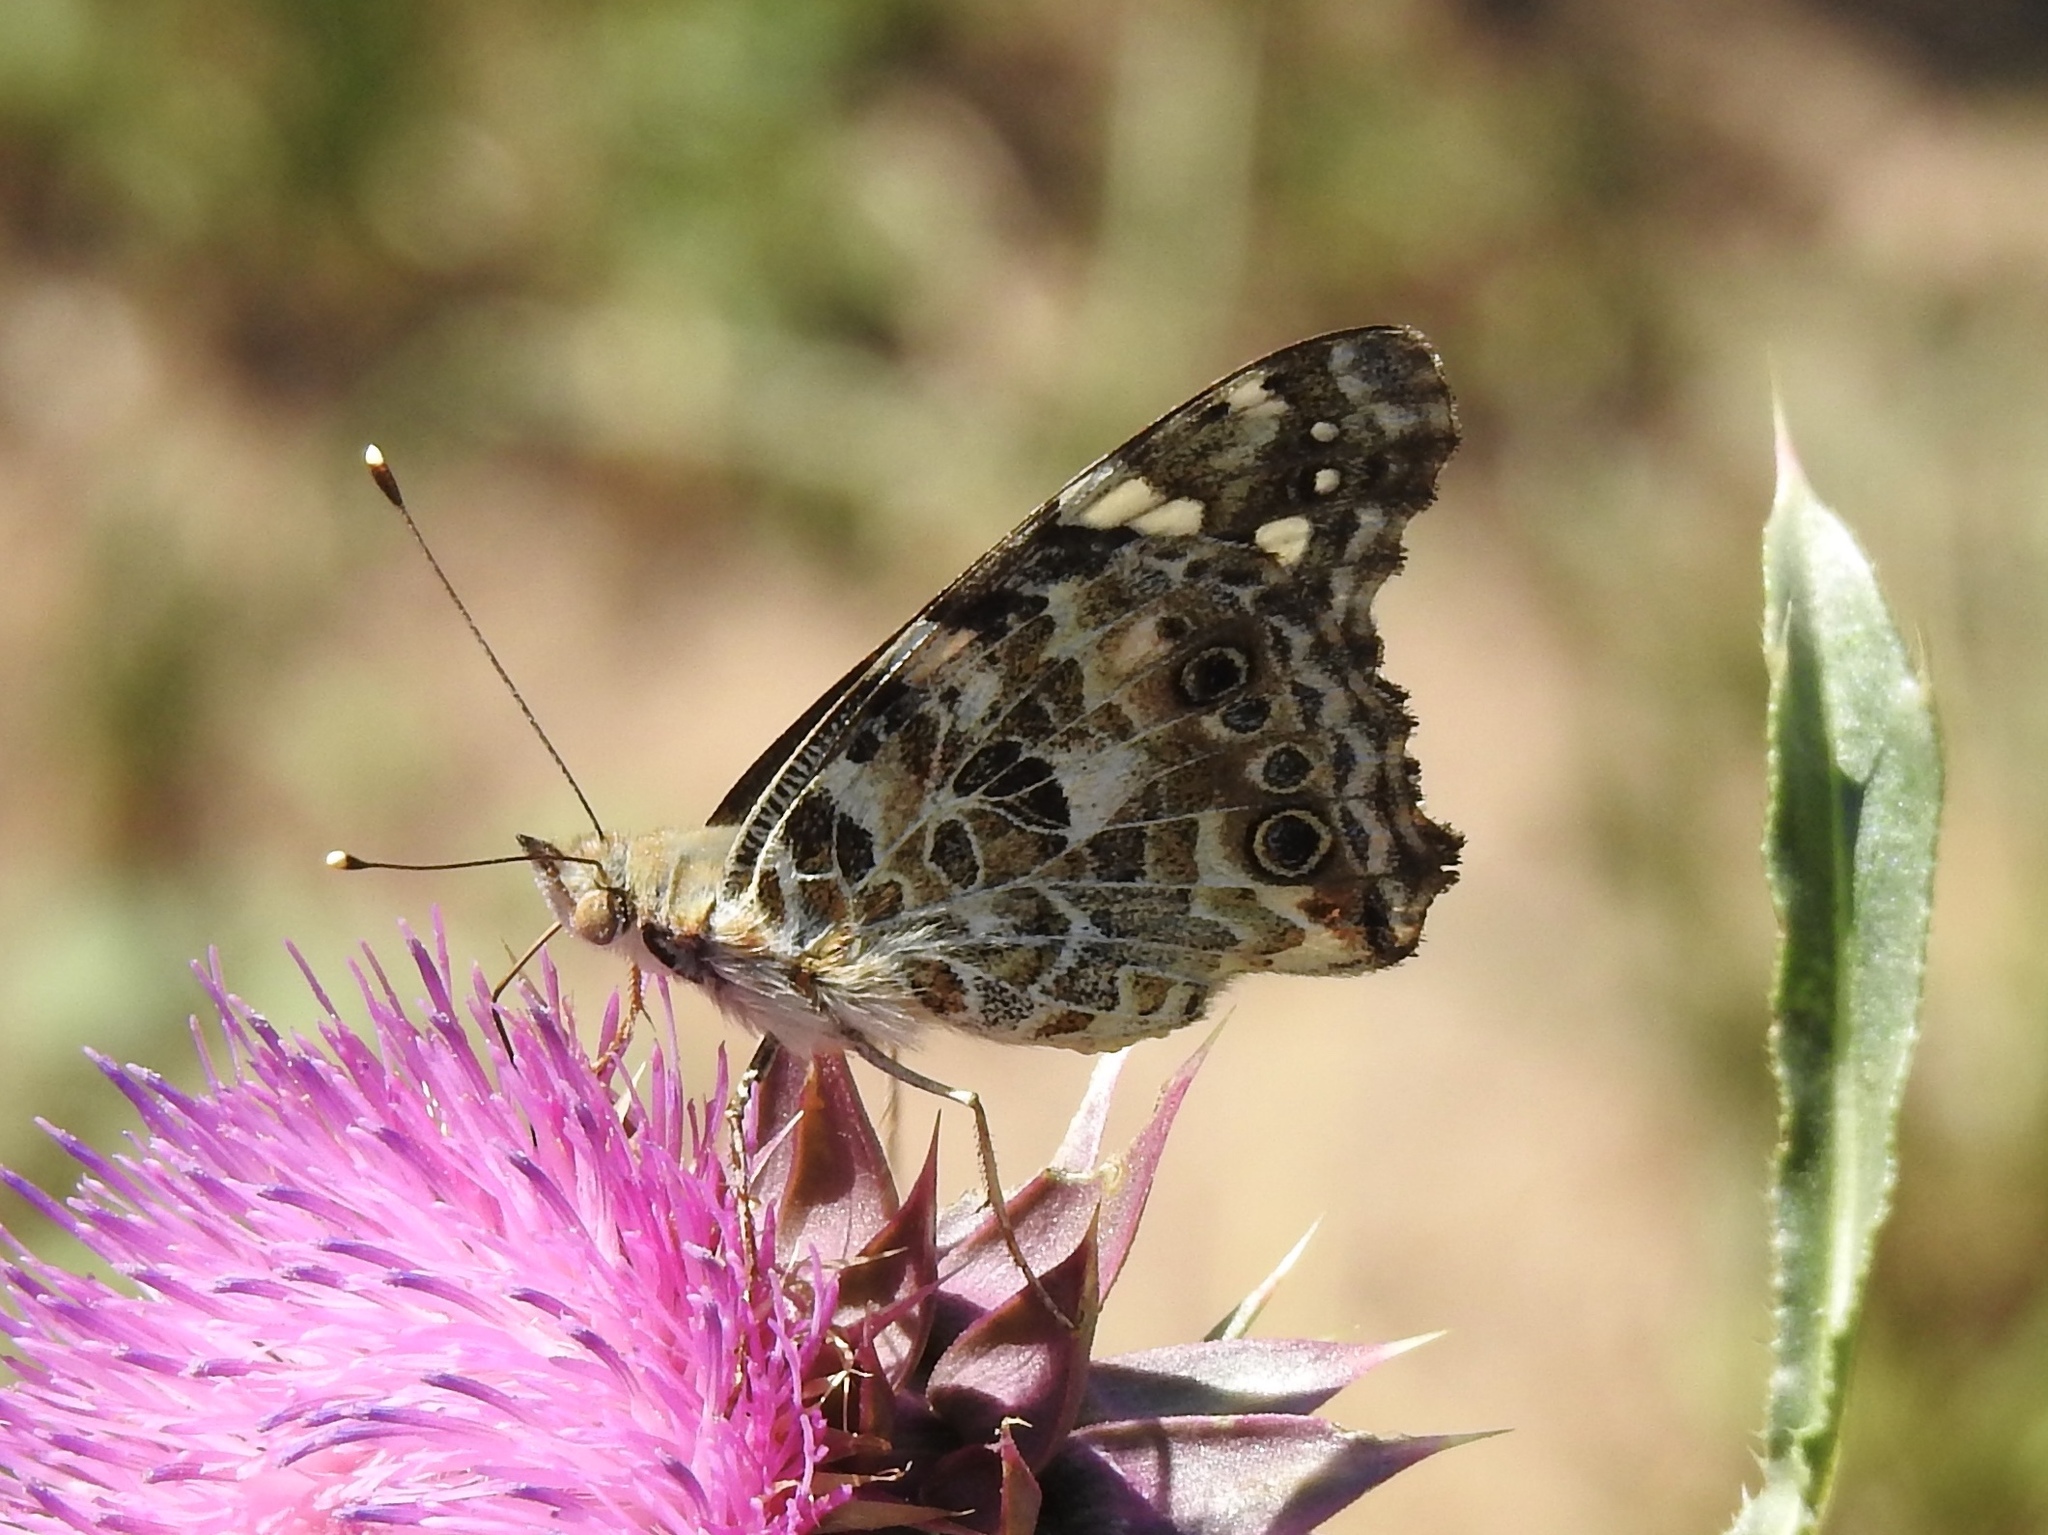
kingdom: Animalia
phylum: Arthropoda
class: Insecta
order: Lepidoptera
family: Nymphalidae
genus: Vanessa
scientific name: Vanessa cardui
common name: Painted lady
